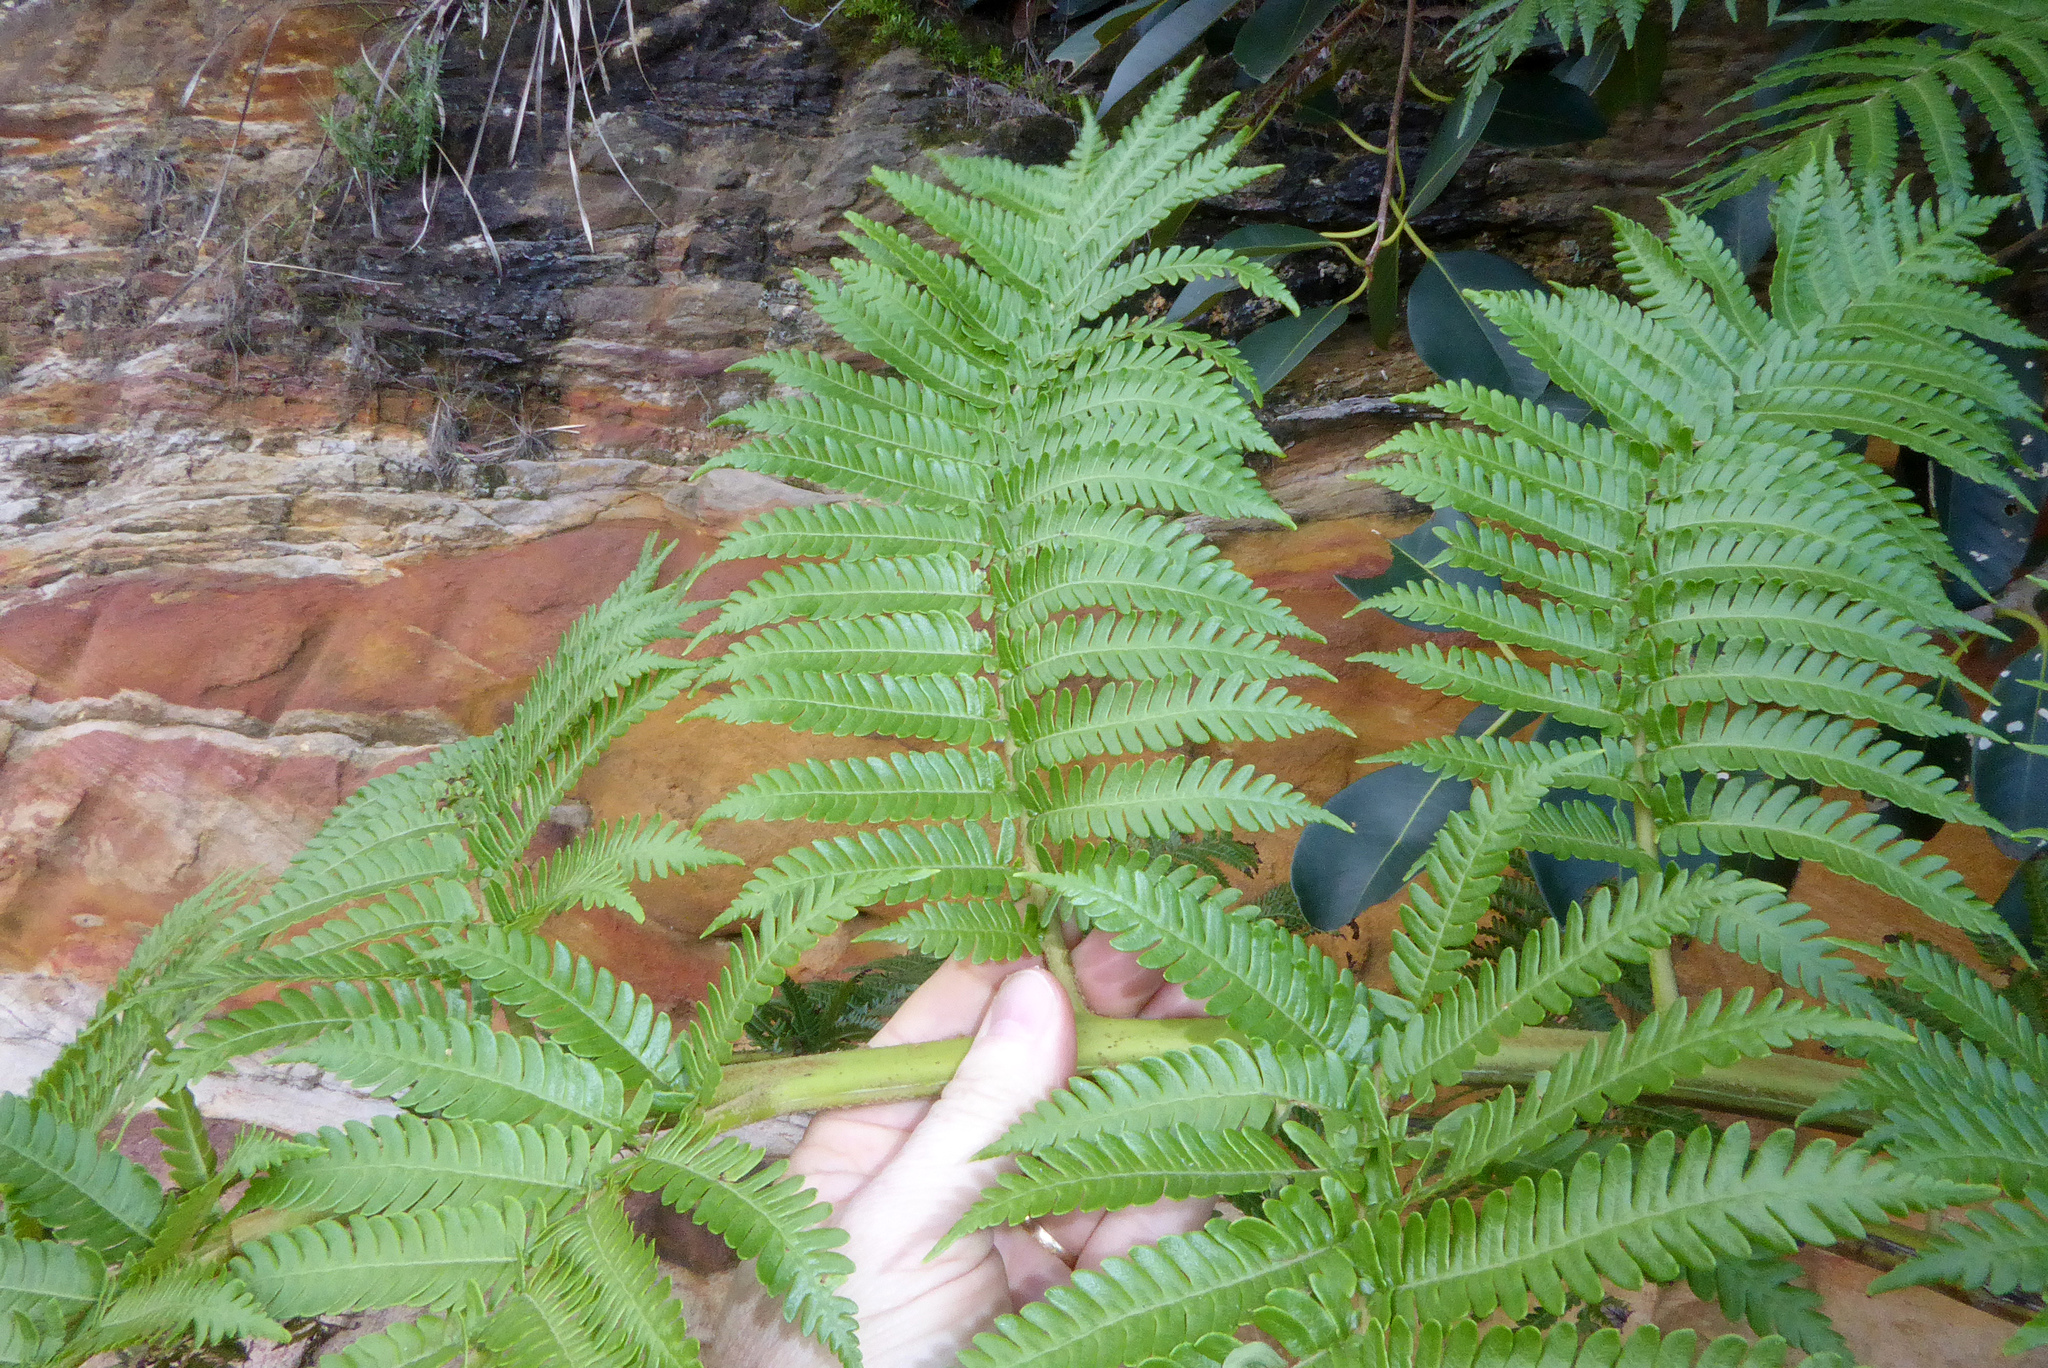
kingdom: Plantae
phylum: Tracheophyta
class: Polypodiopsida
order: Cyatheales
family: Cyatheaceae
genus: Sphaeropteris
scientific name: Sphaeropteris cooperi
